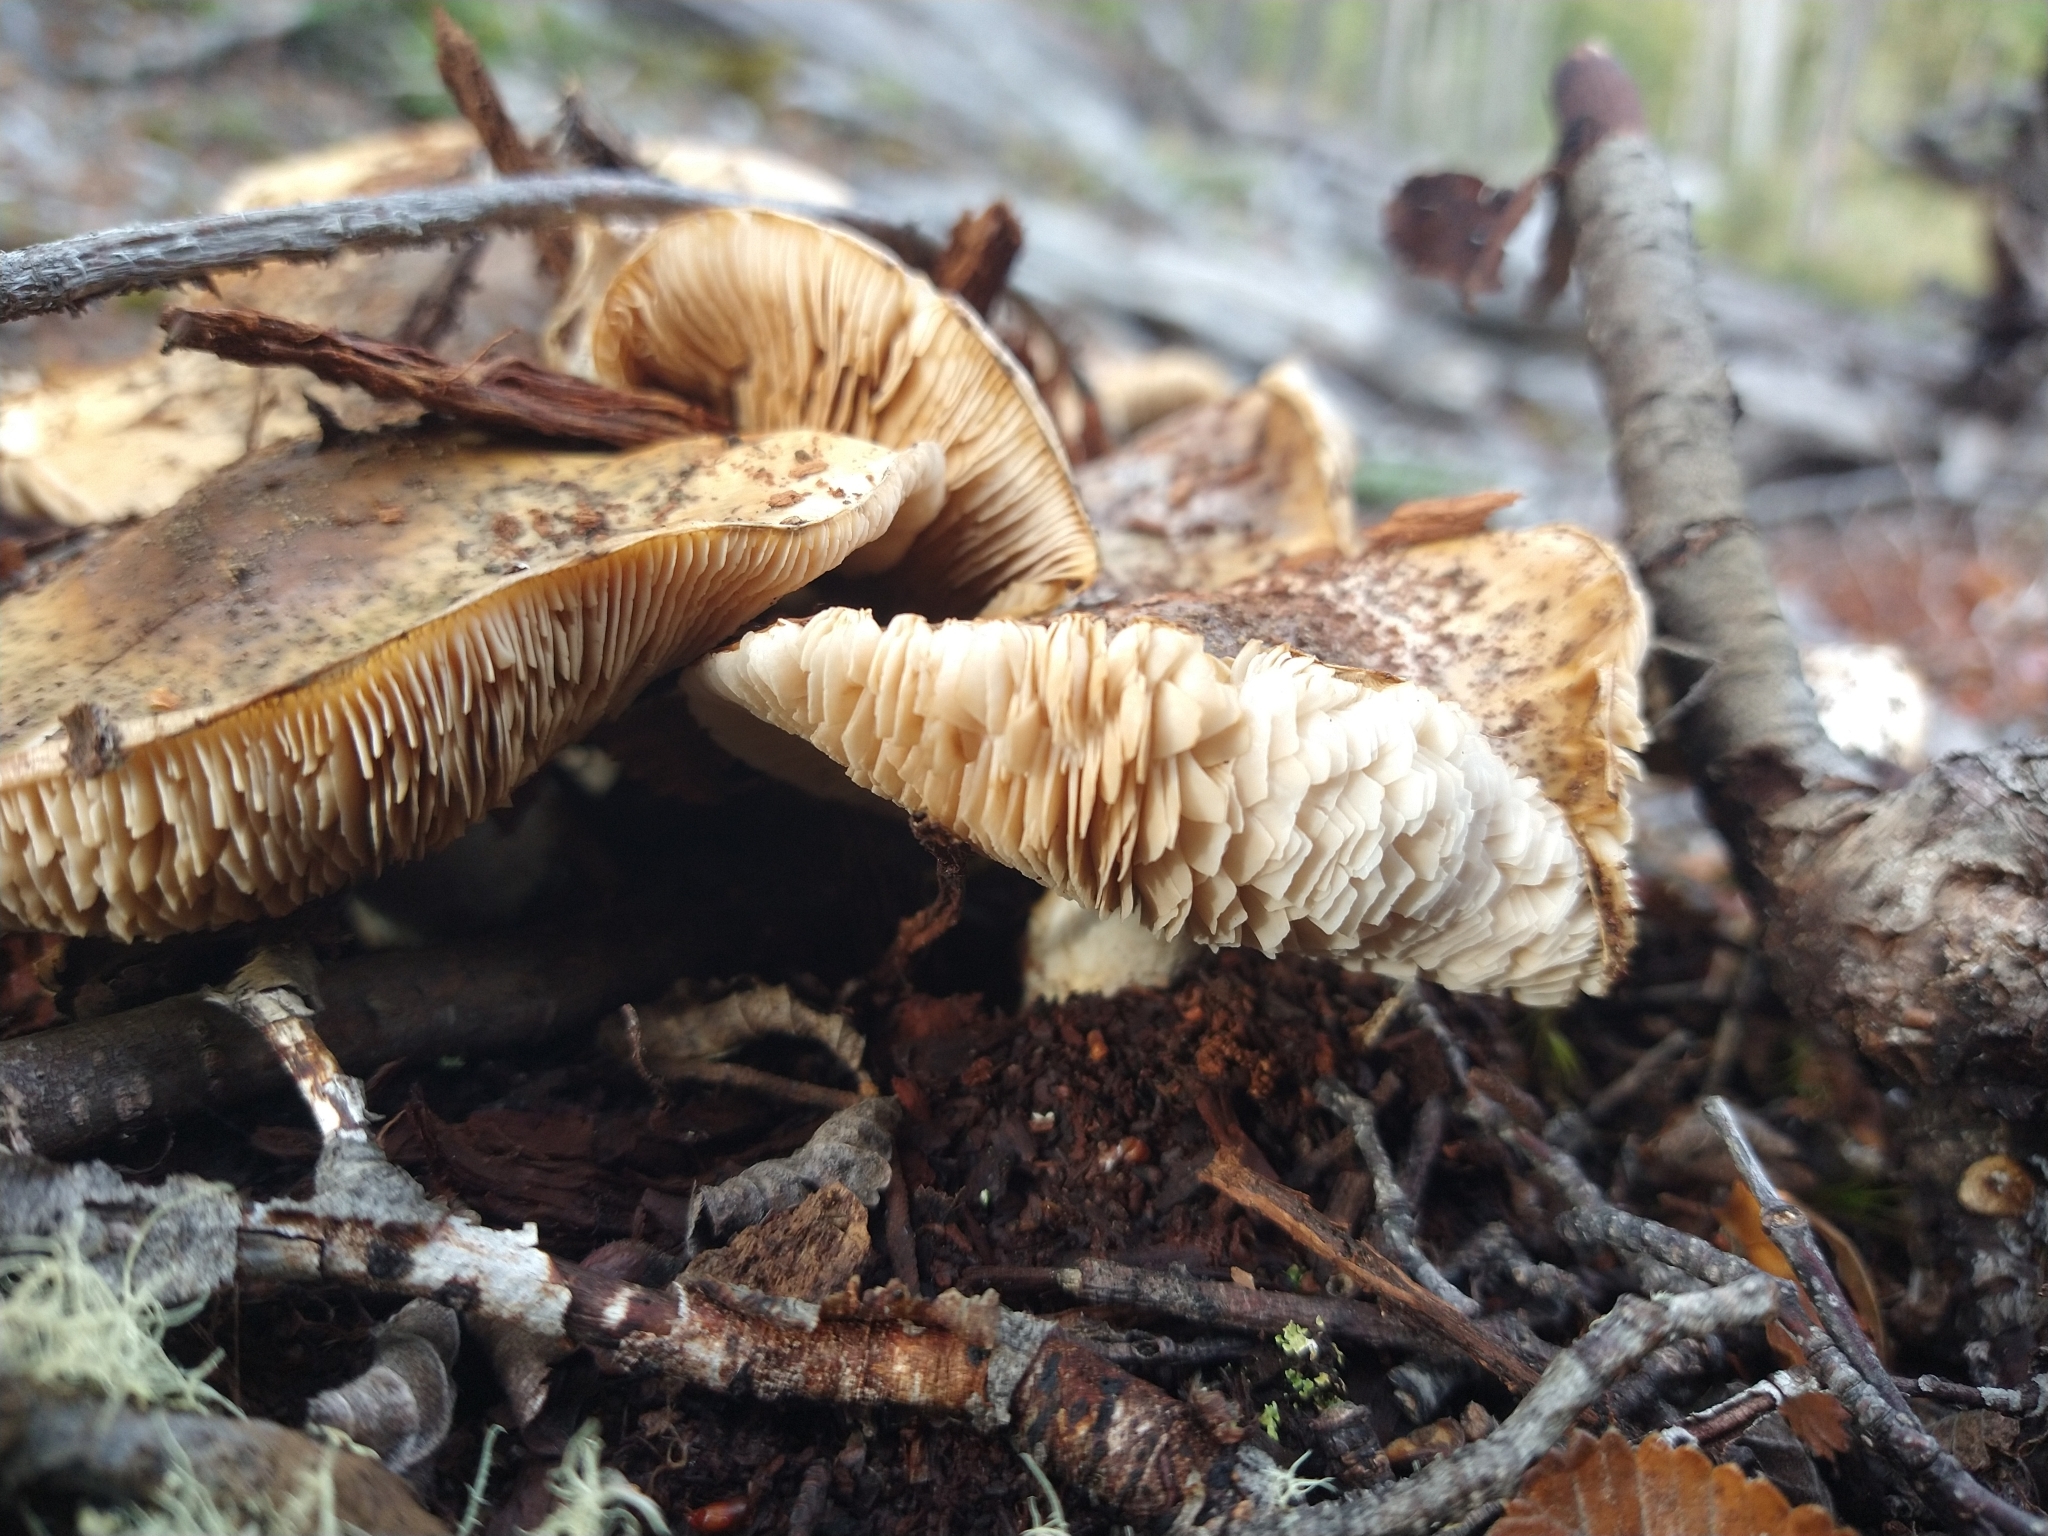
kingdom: Fungi
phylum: Basidiomycota
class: Agaricomycetes
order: Agaricales
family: Tricholomataceae
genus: Tricholoma
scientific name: Tricholoma
